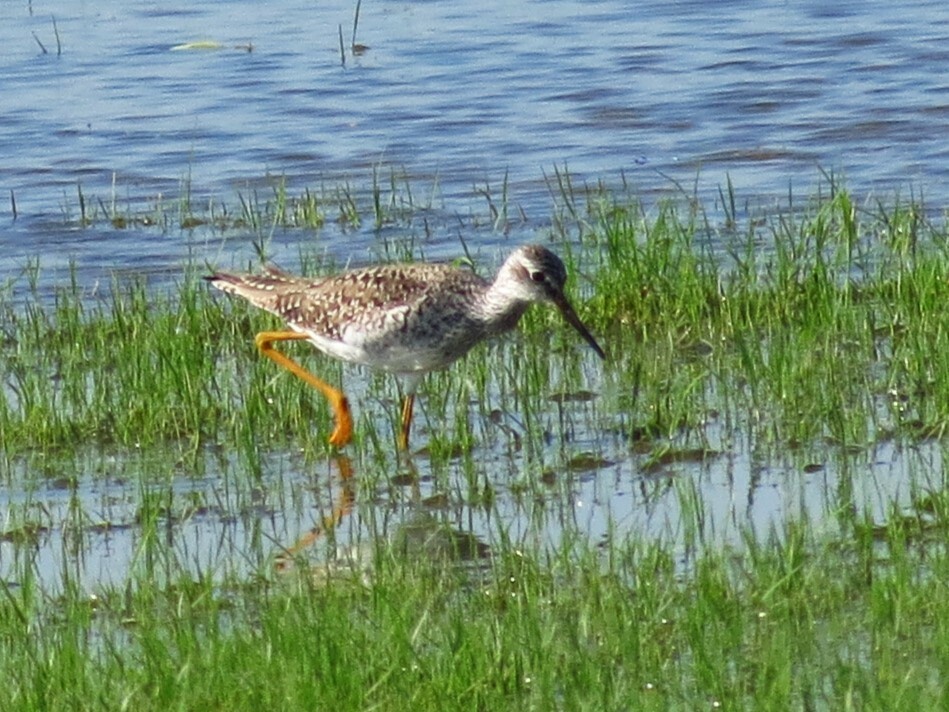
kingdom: Animalia
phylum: Chordata
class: Aves
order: Charadriiformes
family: Scolopacidae
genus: Tringa
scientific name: Tringa melanoleuca
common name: Greater yellowlegs
